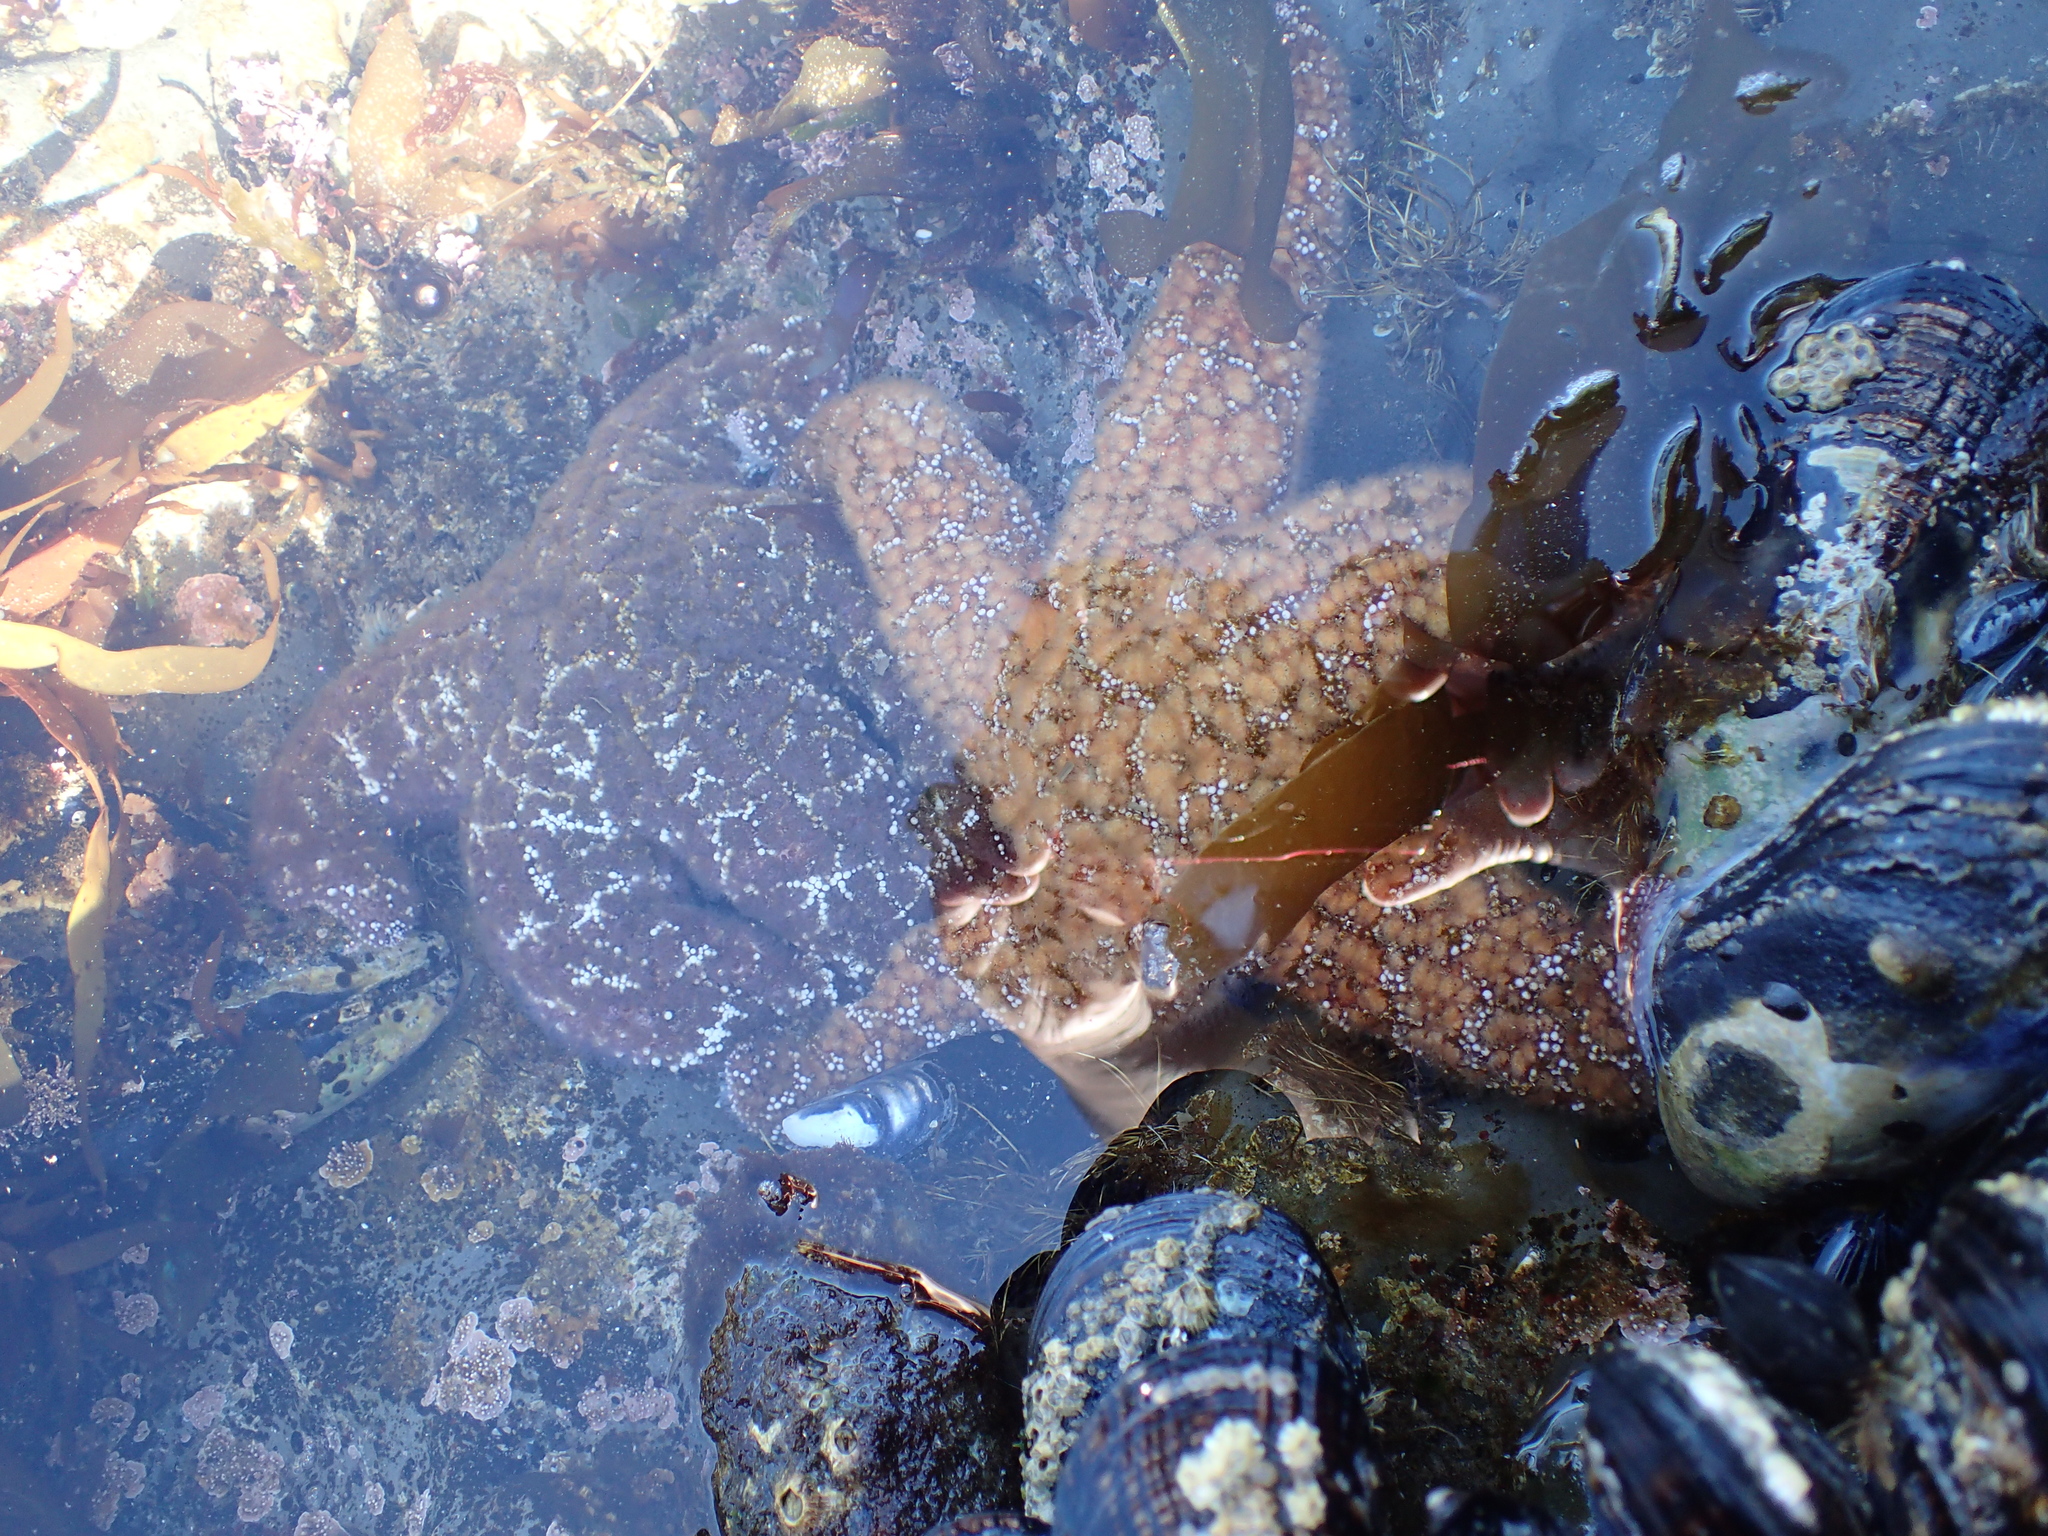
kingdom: Animalia
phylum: Echinodermata
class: Asteroidea
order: Forcipulatida
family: Asteriidae
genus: Pisaster
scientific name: Pisaster ochraceus
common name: Ochre stars
